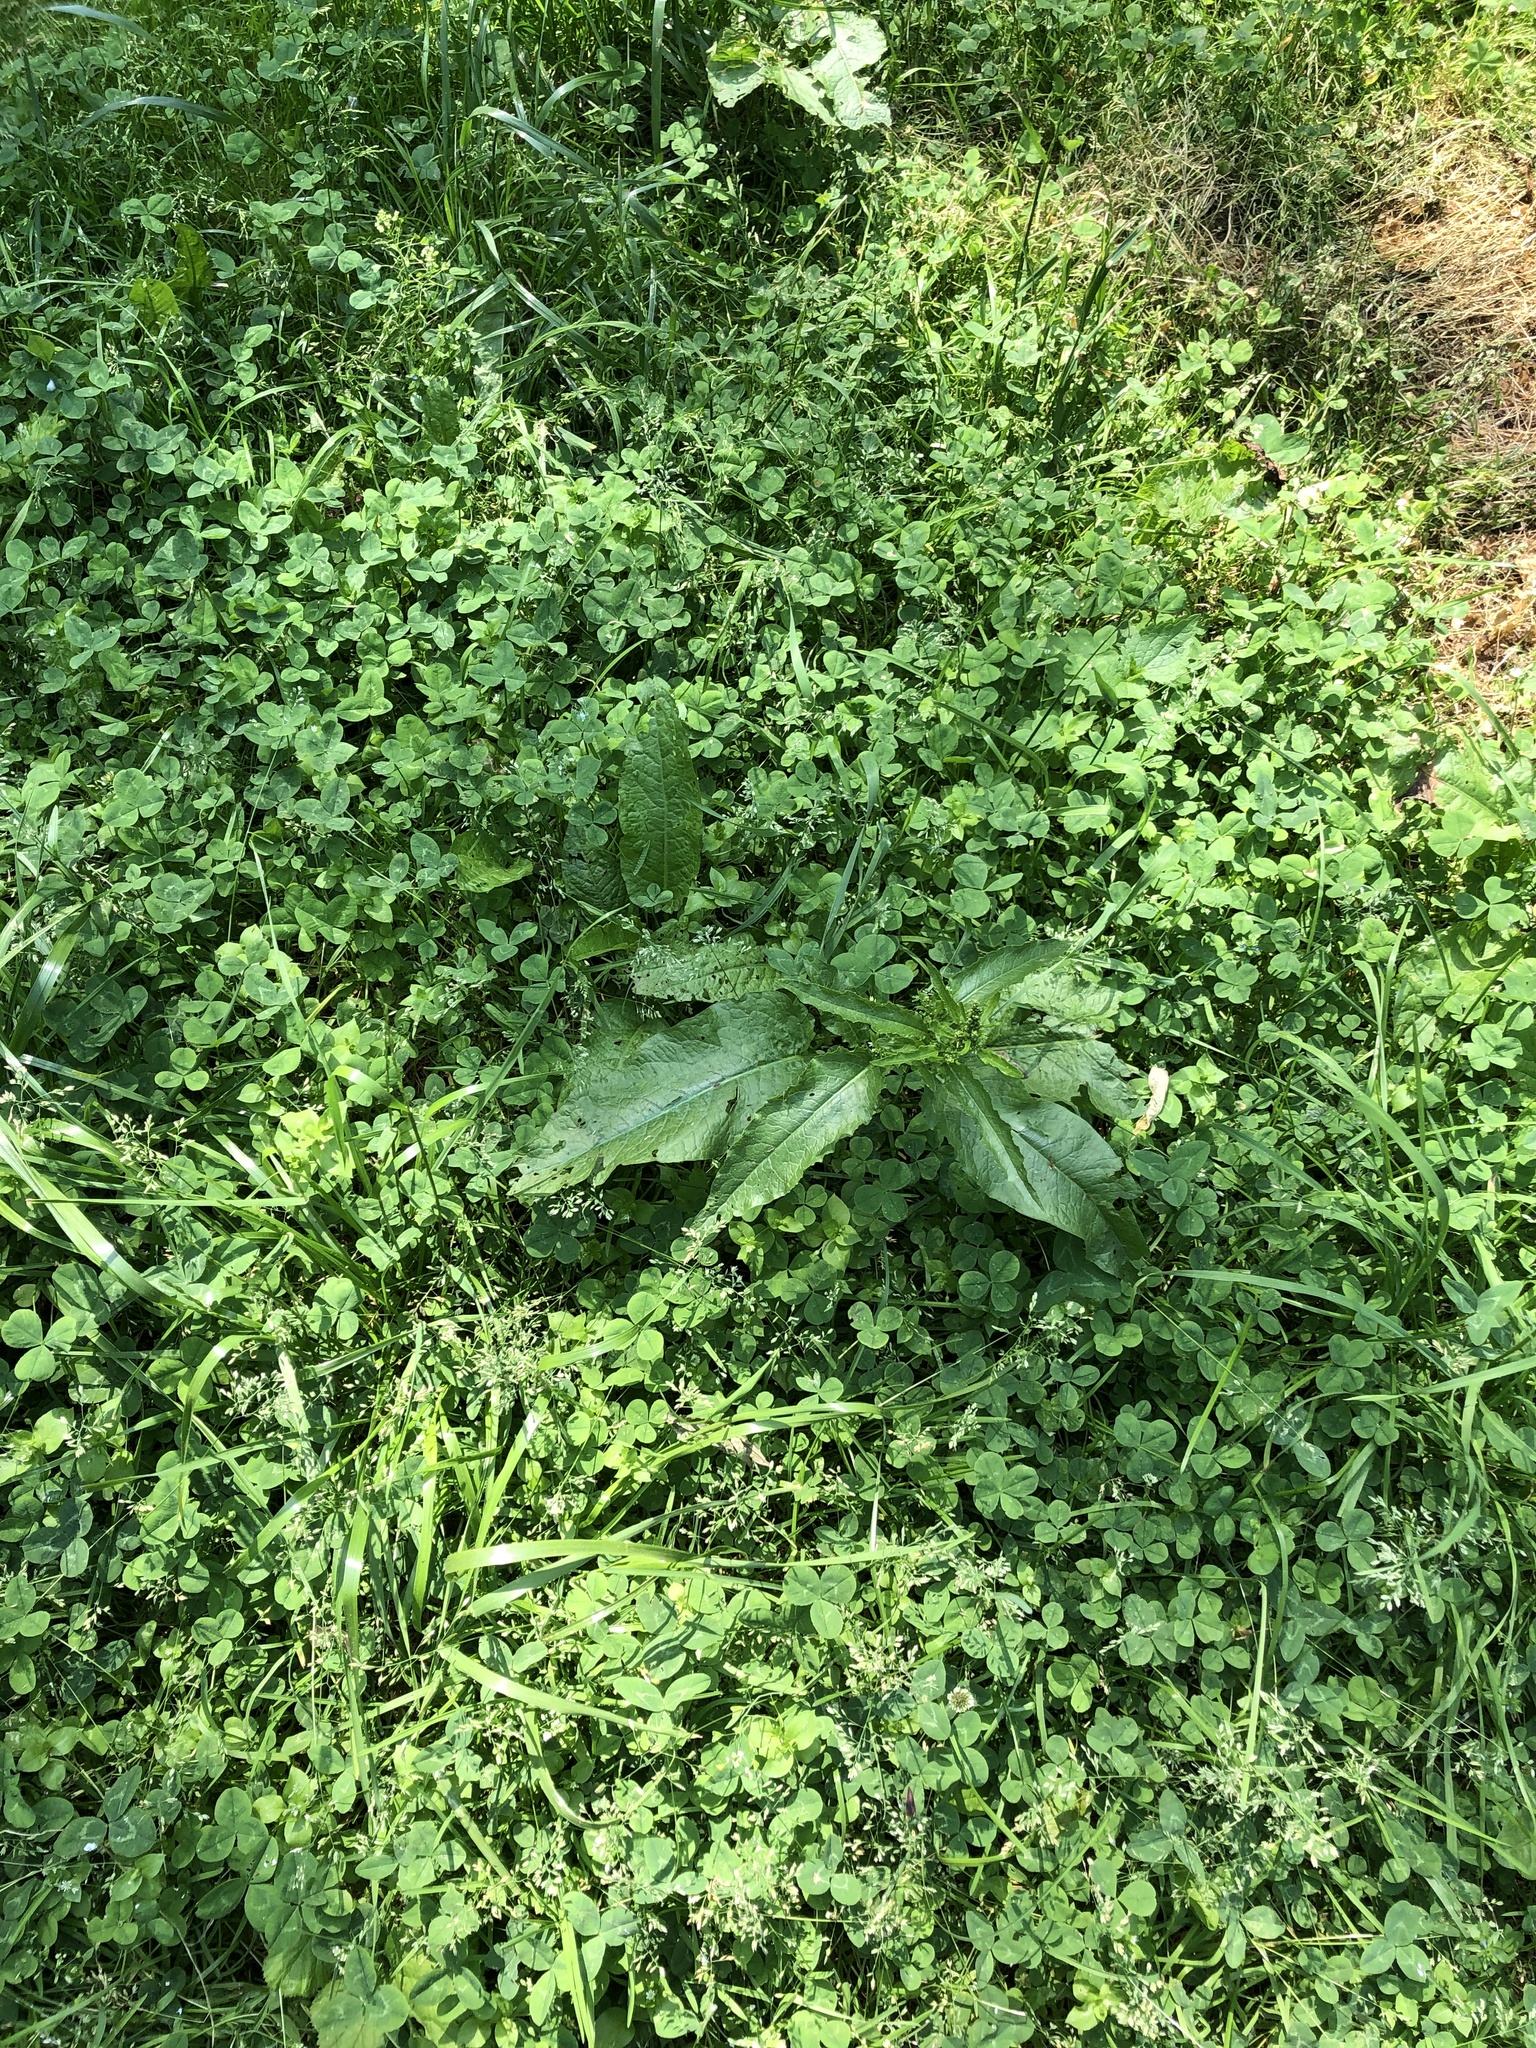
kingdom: Plantae
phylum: Tracheophyta
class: Magnoliopsida
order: Caryophyllales
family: Polygonaceae
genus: Rumex
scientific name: Rumex obtusifolius
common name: Bitter dock
